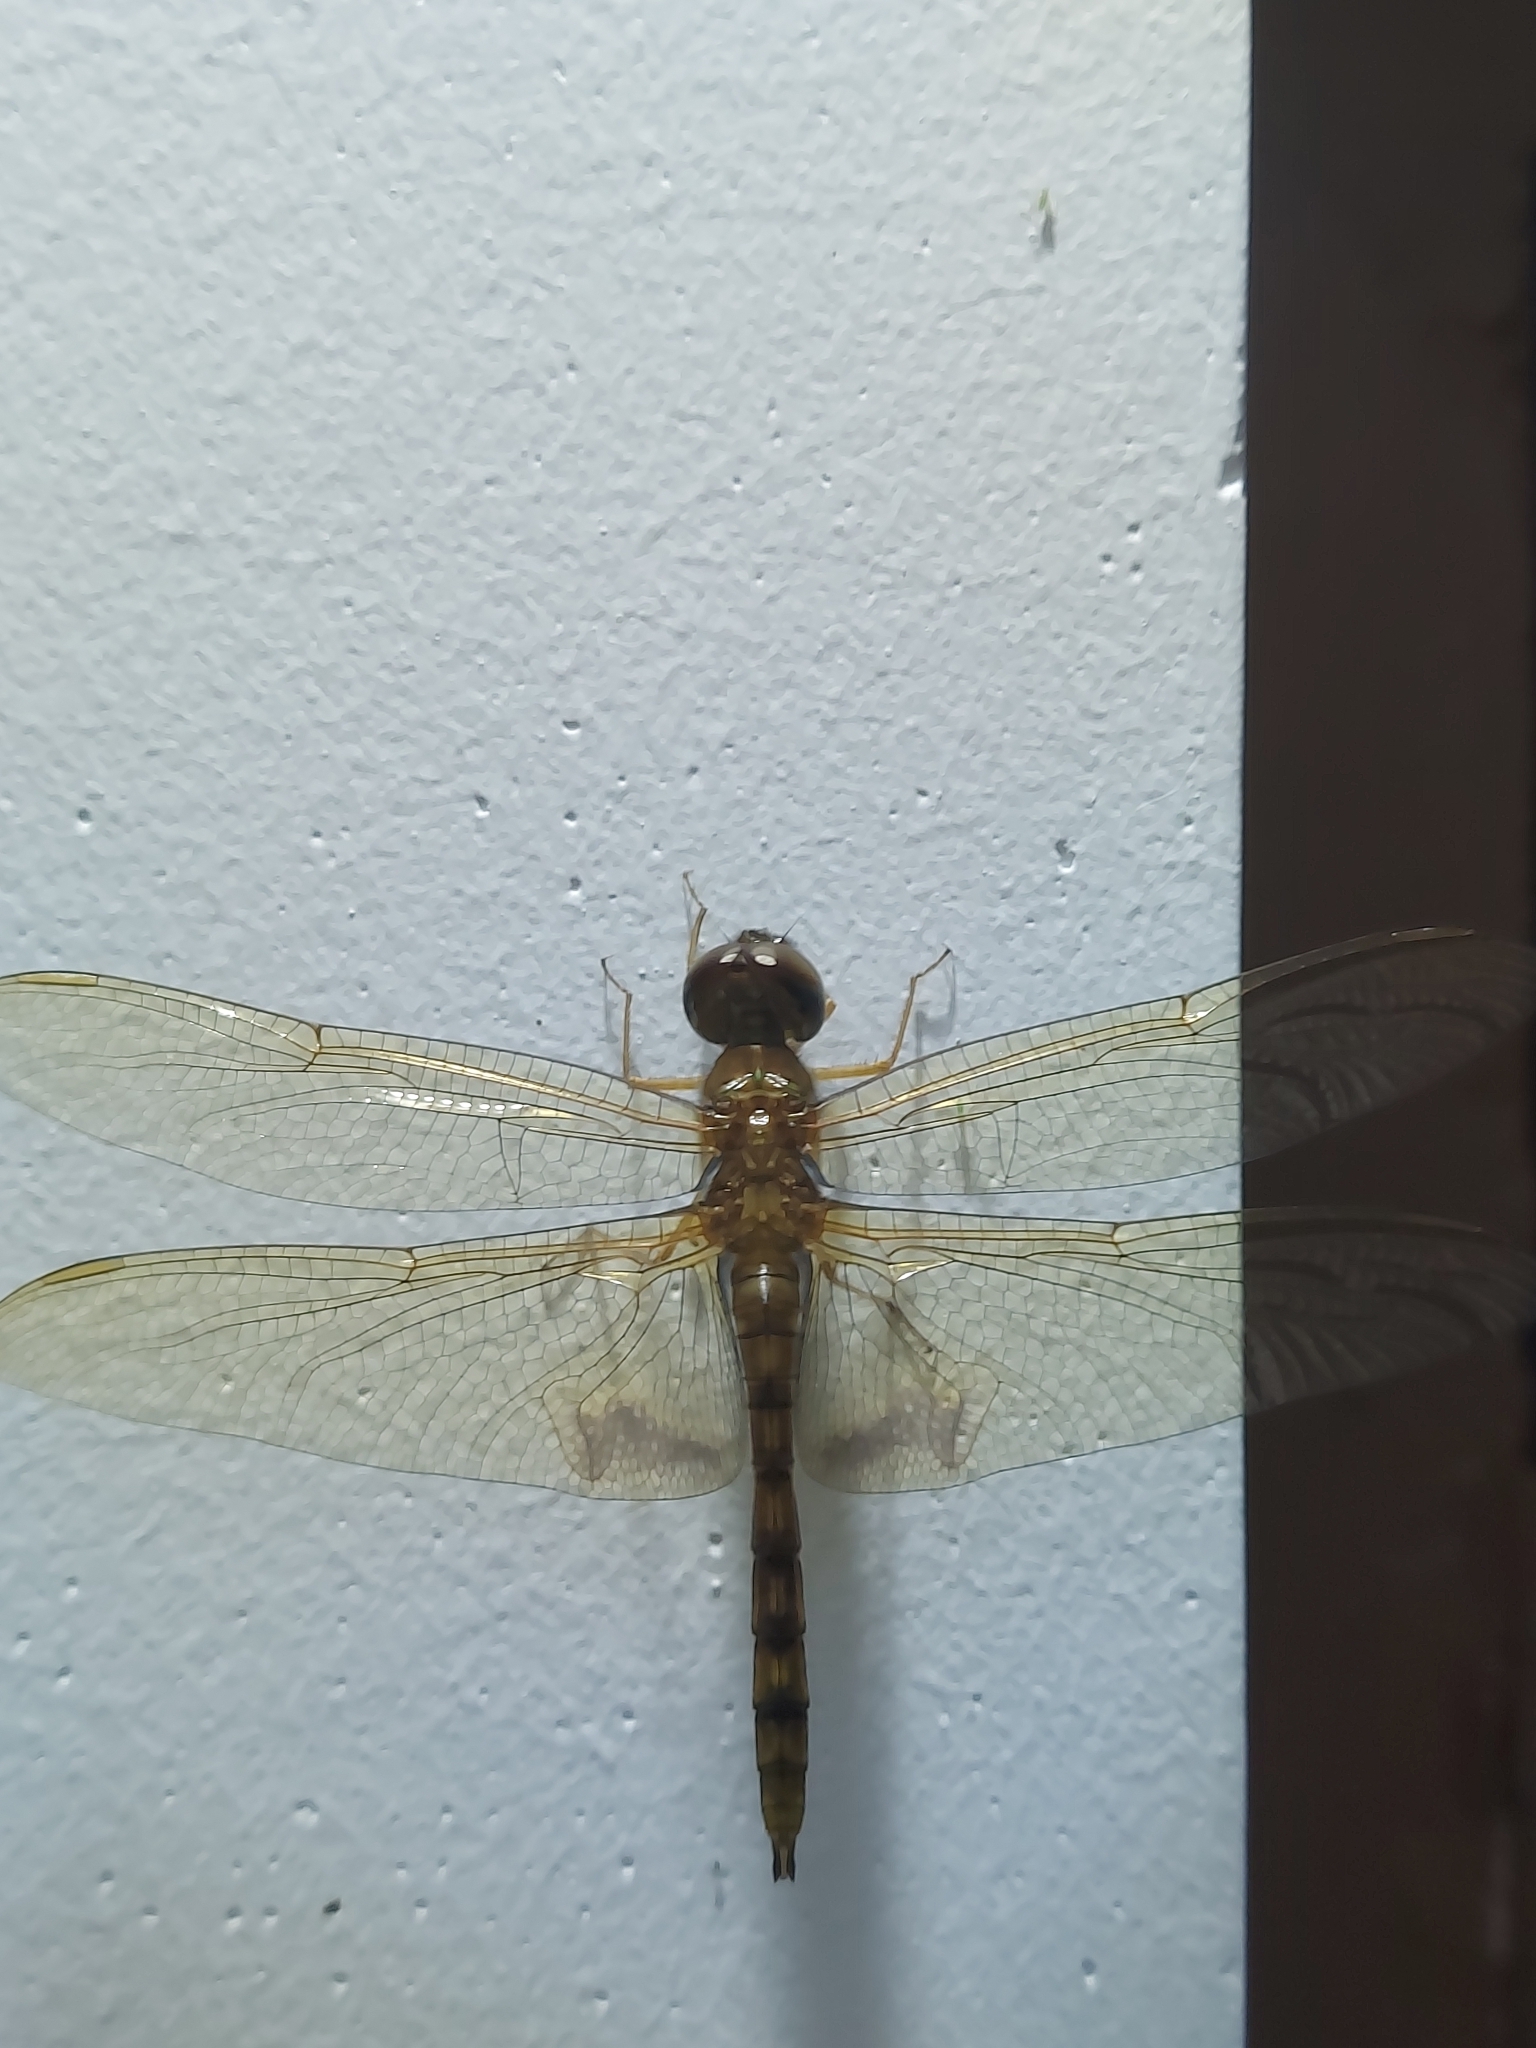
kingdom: Animalia
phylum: Arthropoda
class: Insecta
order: Odonata
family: Libellulidae
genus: Hydrobasileus
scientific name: Hydrobasileus croceus
